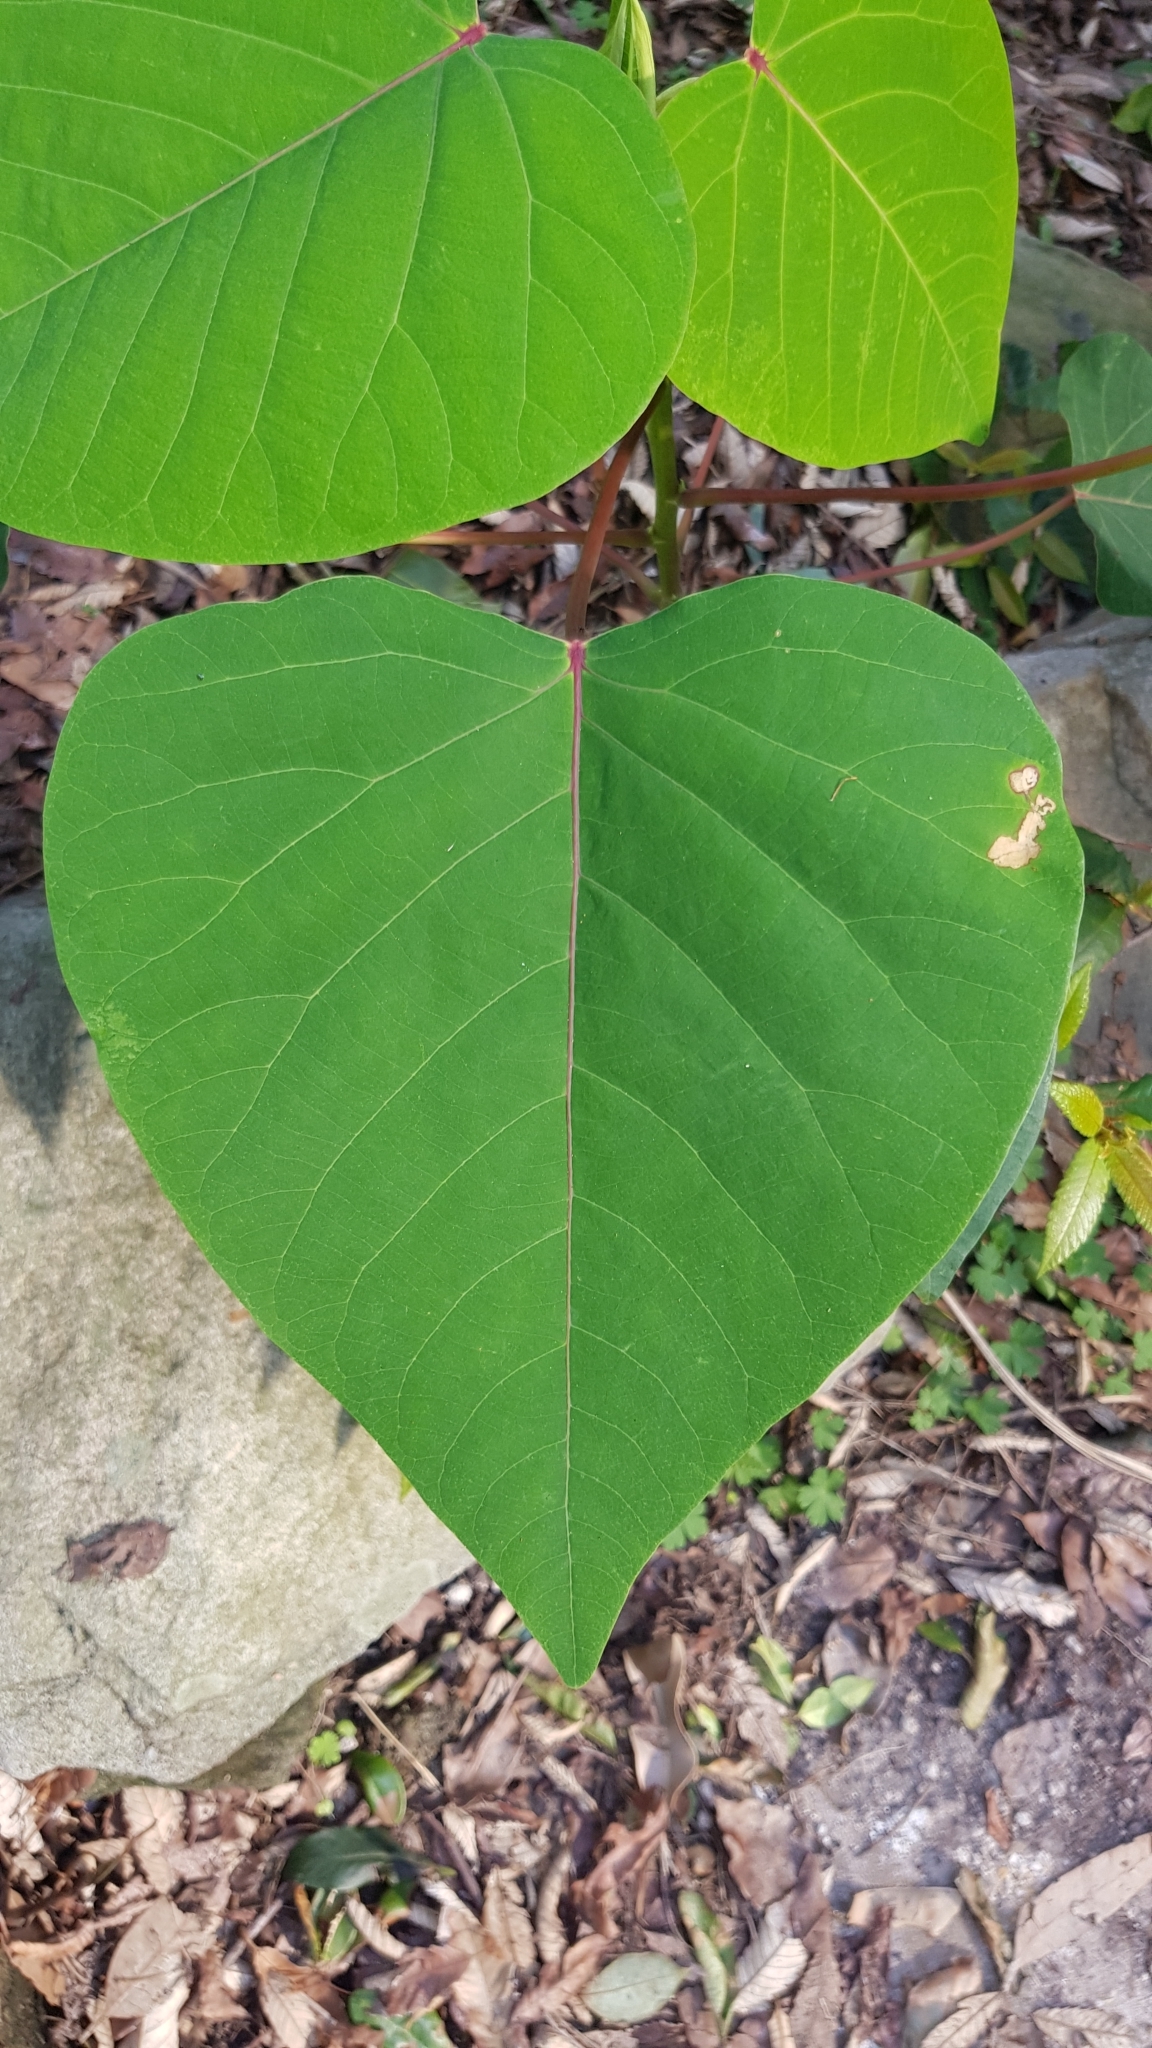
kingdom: Plantae
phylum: Tracheophyta
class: Magnoliopsida
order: Malpighiales
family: Euphorbiaceae
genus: Homalanthus
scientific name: Homalanthus populifolius
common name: Queensland poplar
